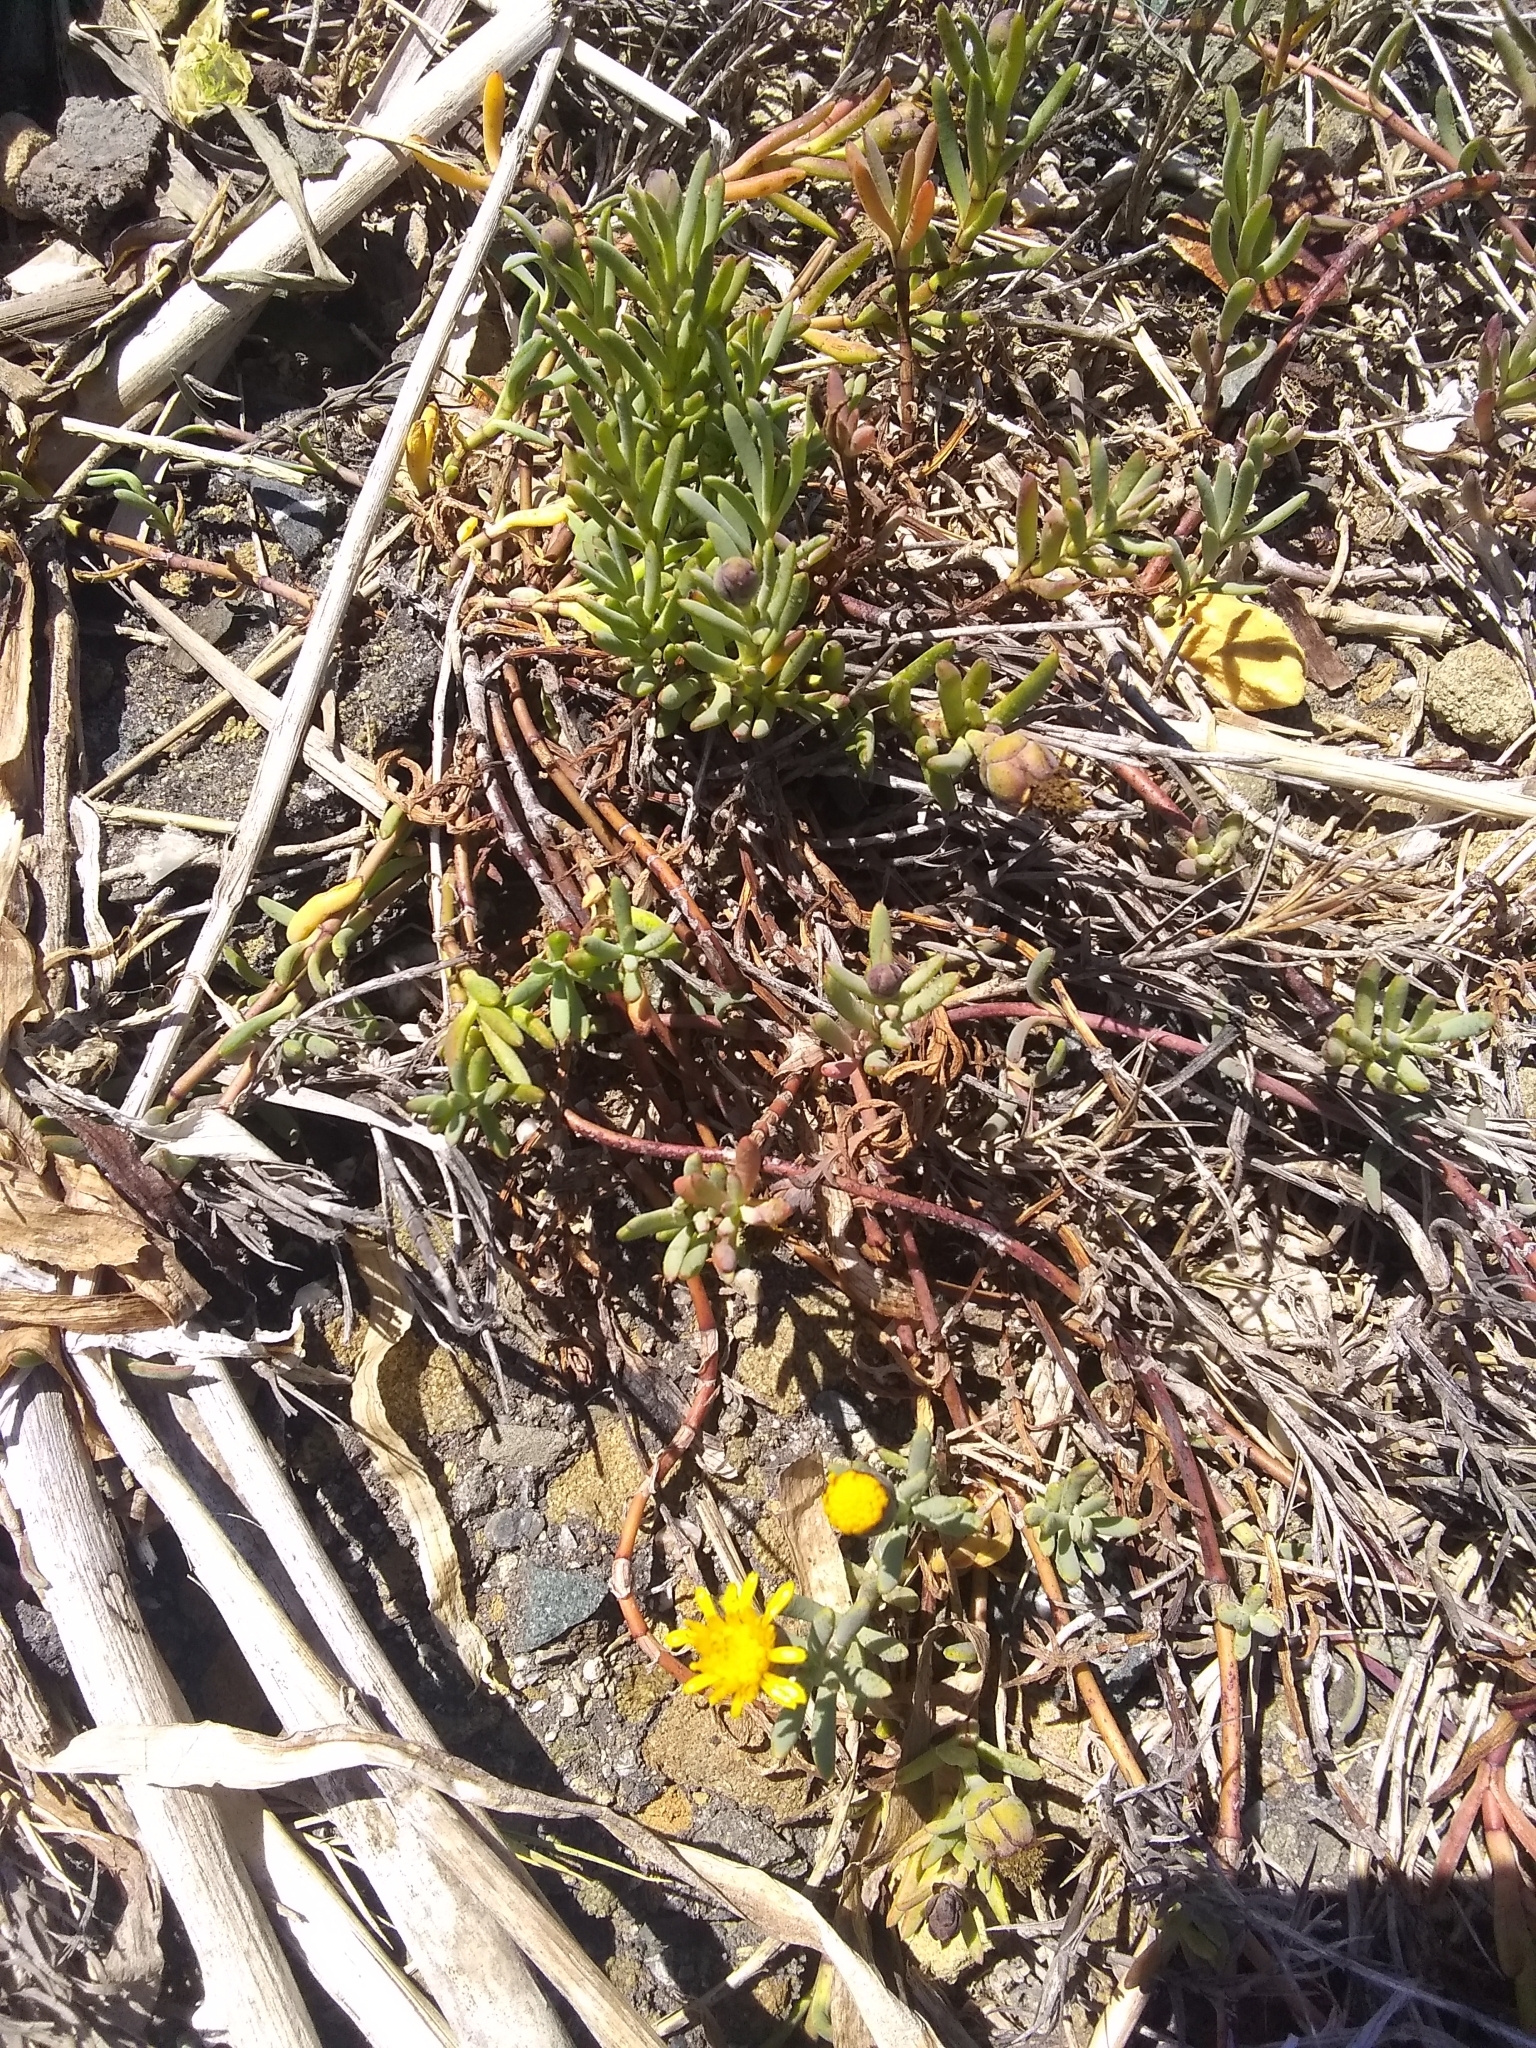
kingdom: Plantae
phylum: Tracheophyta
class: Magnoliopsida
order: Asterales
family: Asteraceae
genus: Jaumea
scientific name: Jaumea carnosa
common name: Fleshy jaumea
